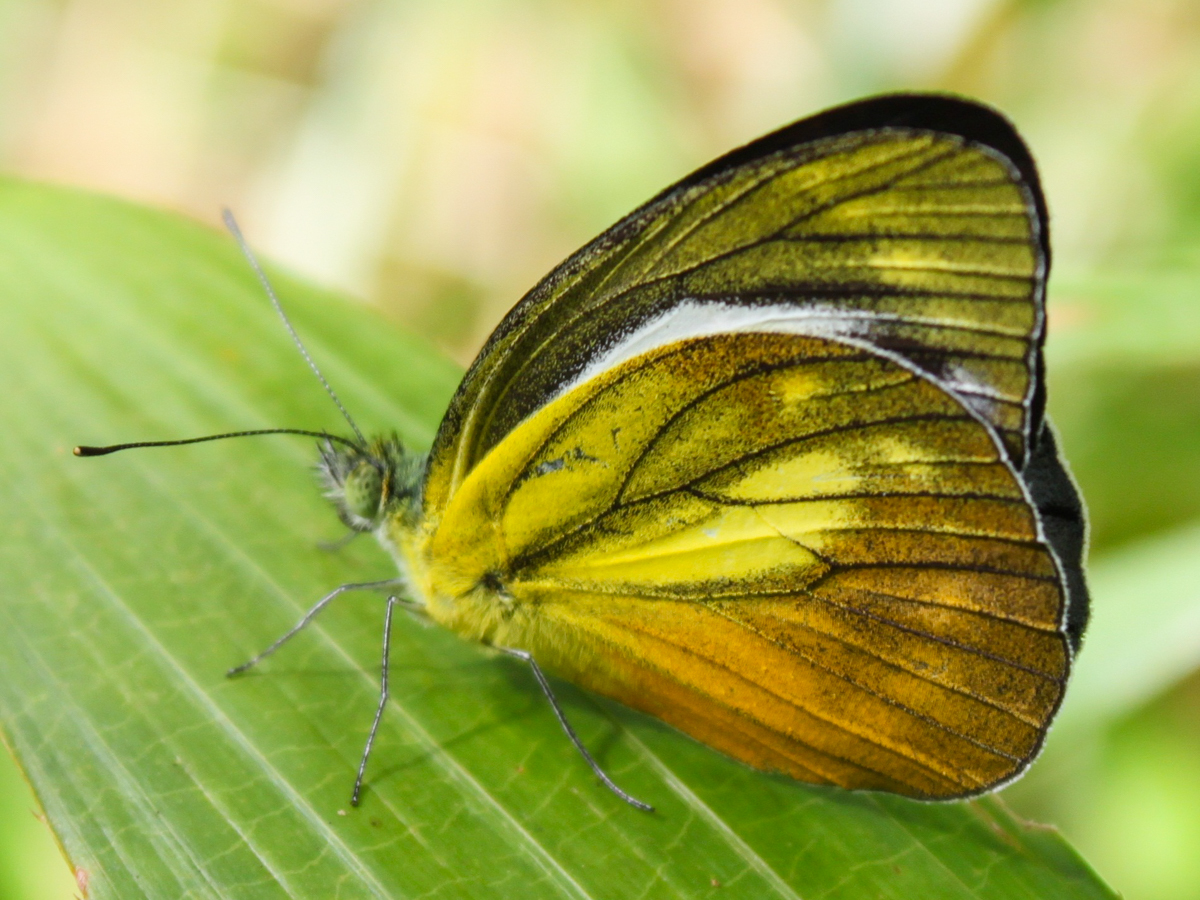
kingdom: Animalia
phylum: Arthropoda
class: Insecta
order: Lepidoptera
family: Pieridae
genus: Cepora
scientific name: Cepora nadina
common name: Lesser gull
